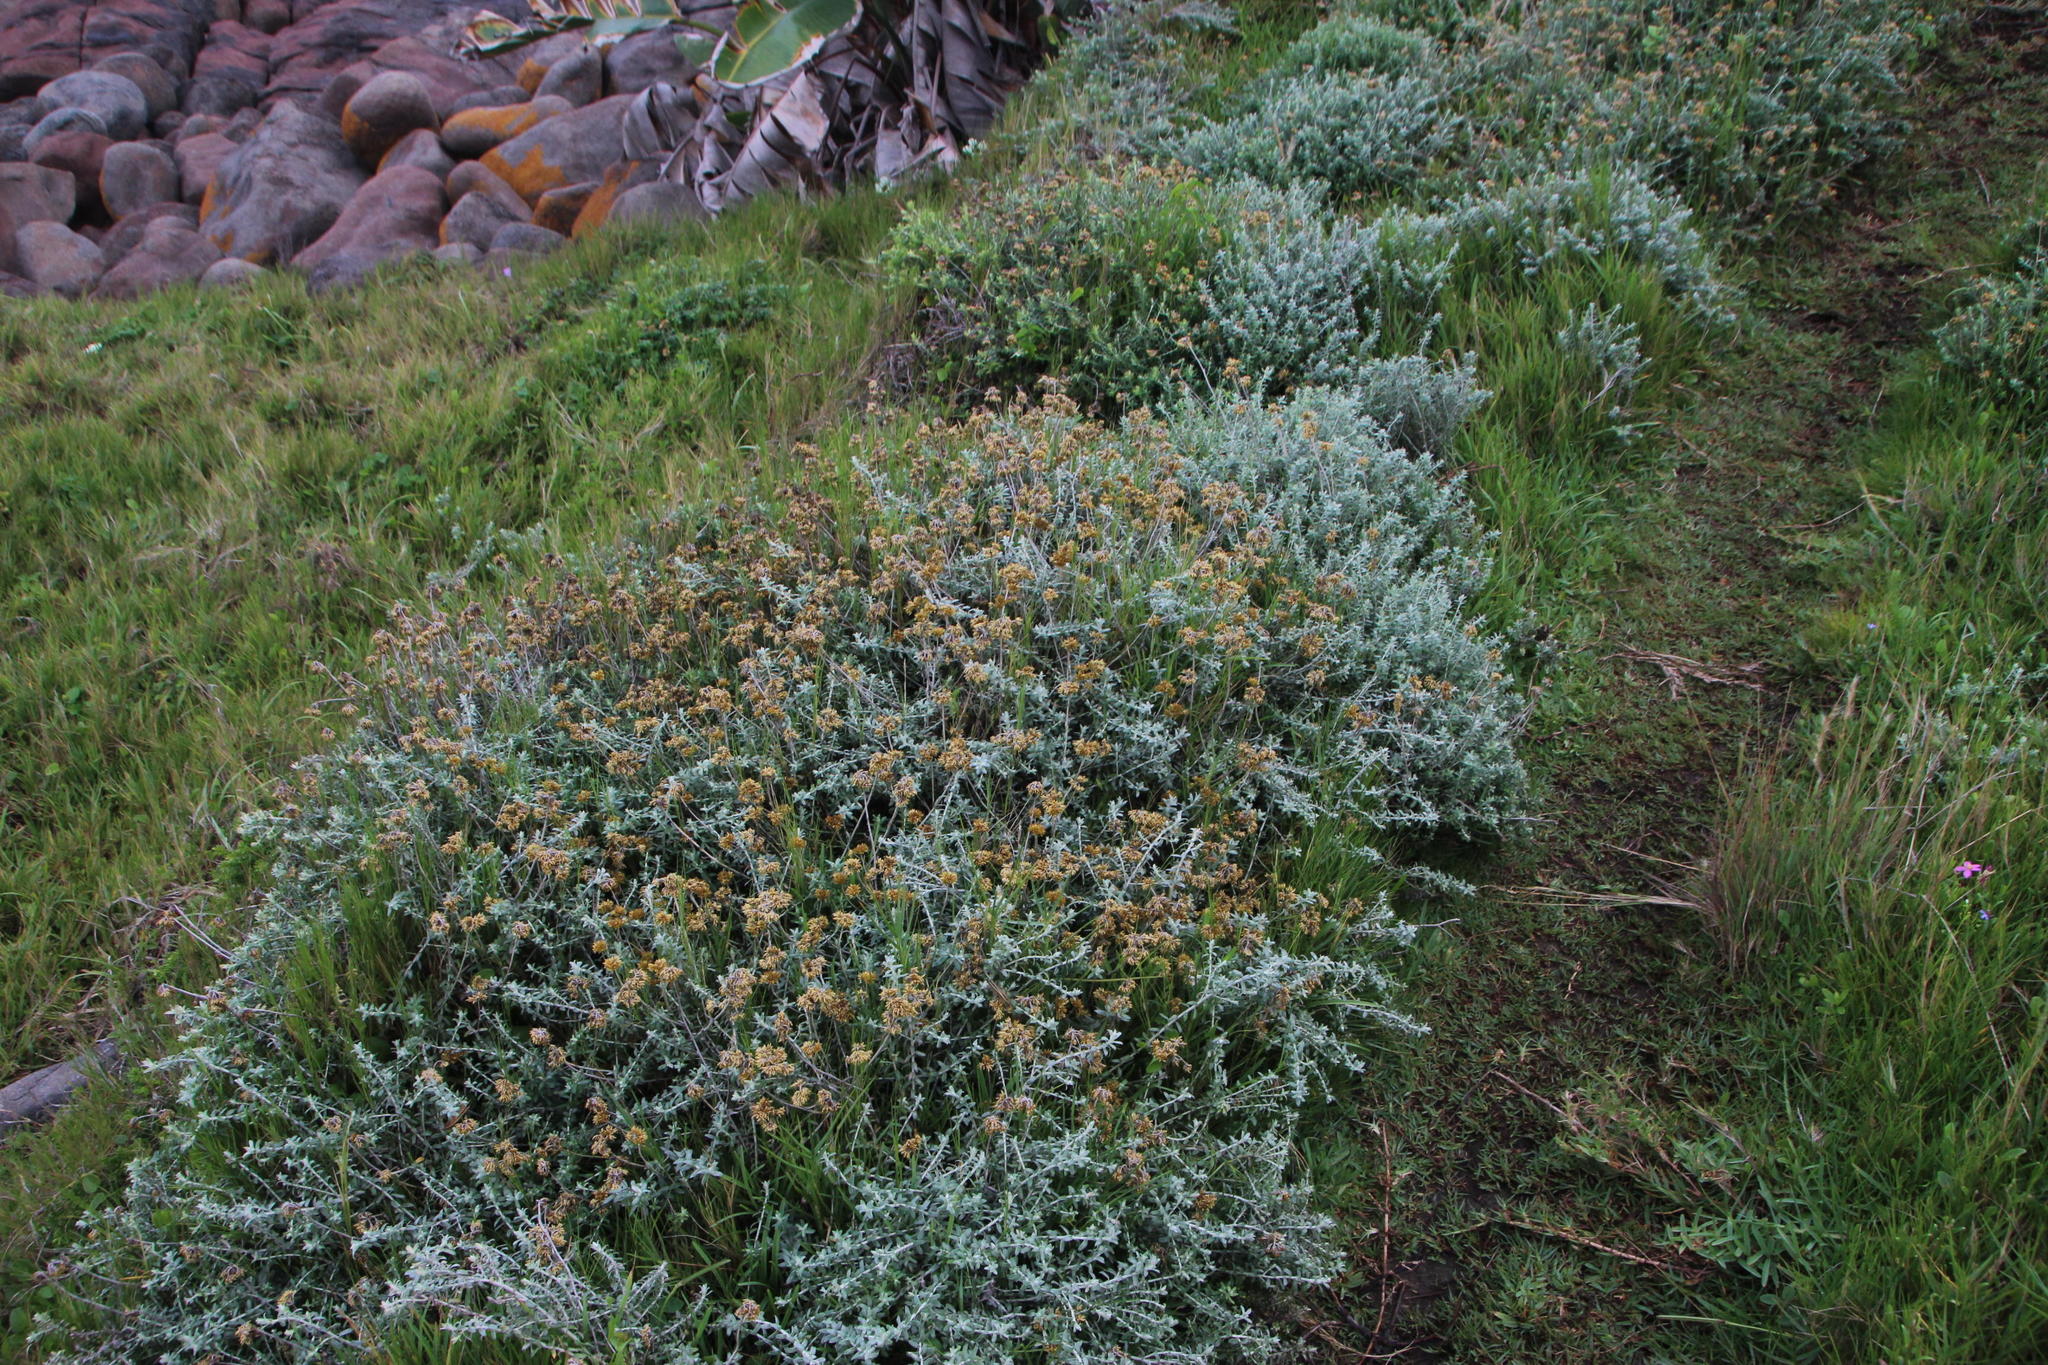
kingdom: Plantae
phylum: Tracheophyta
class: Magnoliopsida
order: Asterales
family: Asteraceae
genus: Helichrysum
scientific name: Helichrysum cymosum
